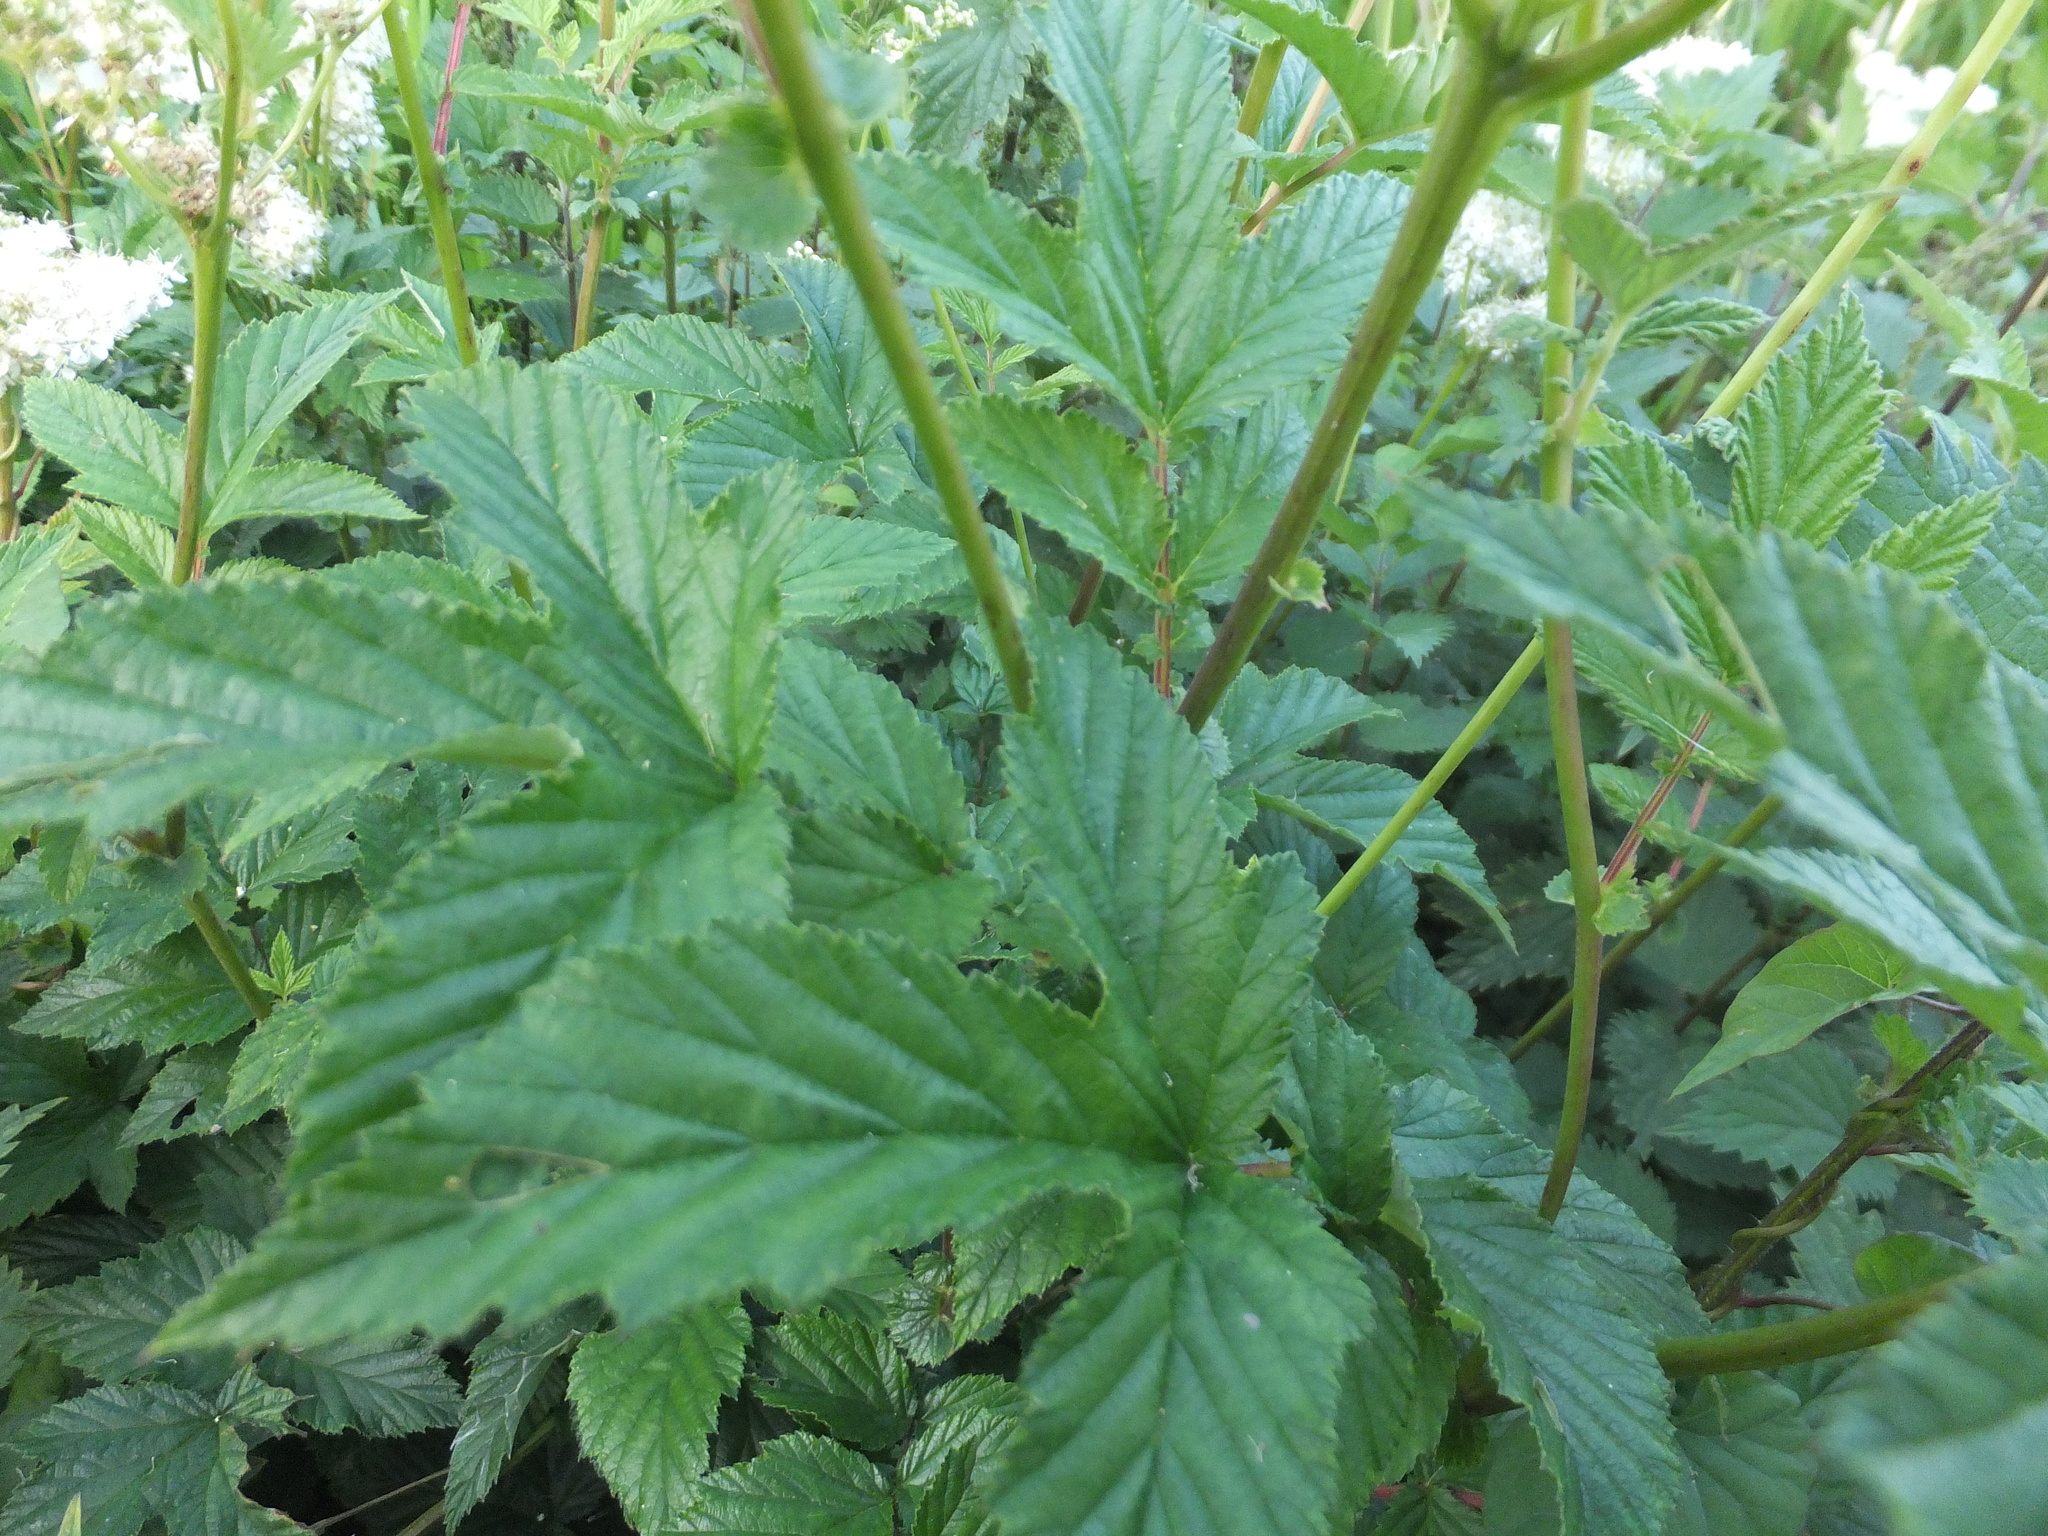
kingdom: Plantae
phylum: Tracheophyta
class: Magnoliopsida
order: Rosales
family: Rosaceae
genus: Filipendula
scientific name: Filipendula ulmaria
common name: Meadowsweet
